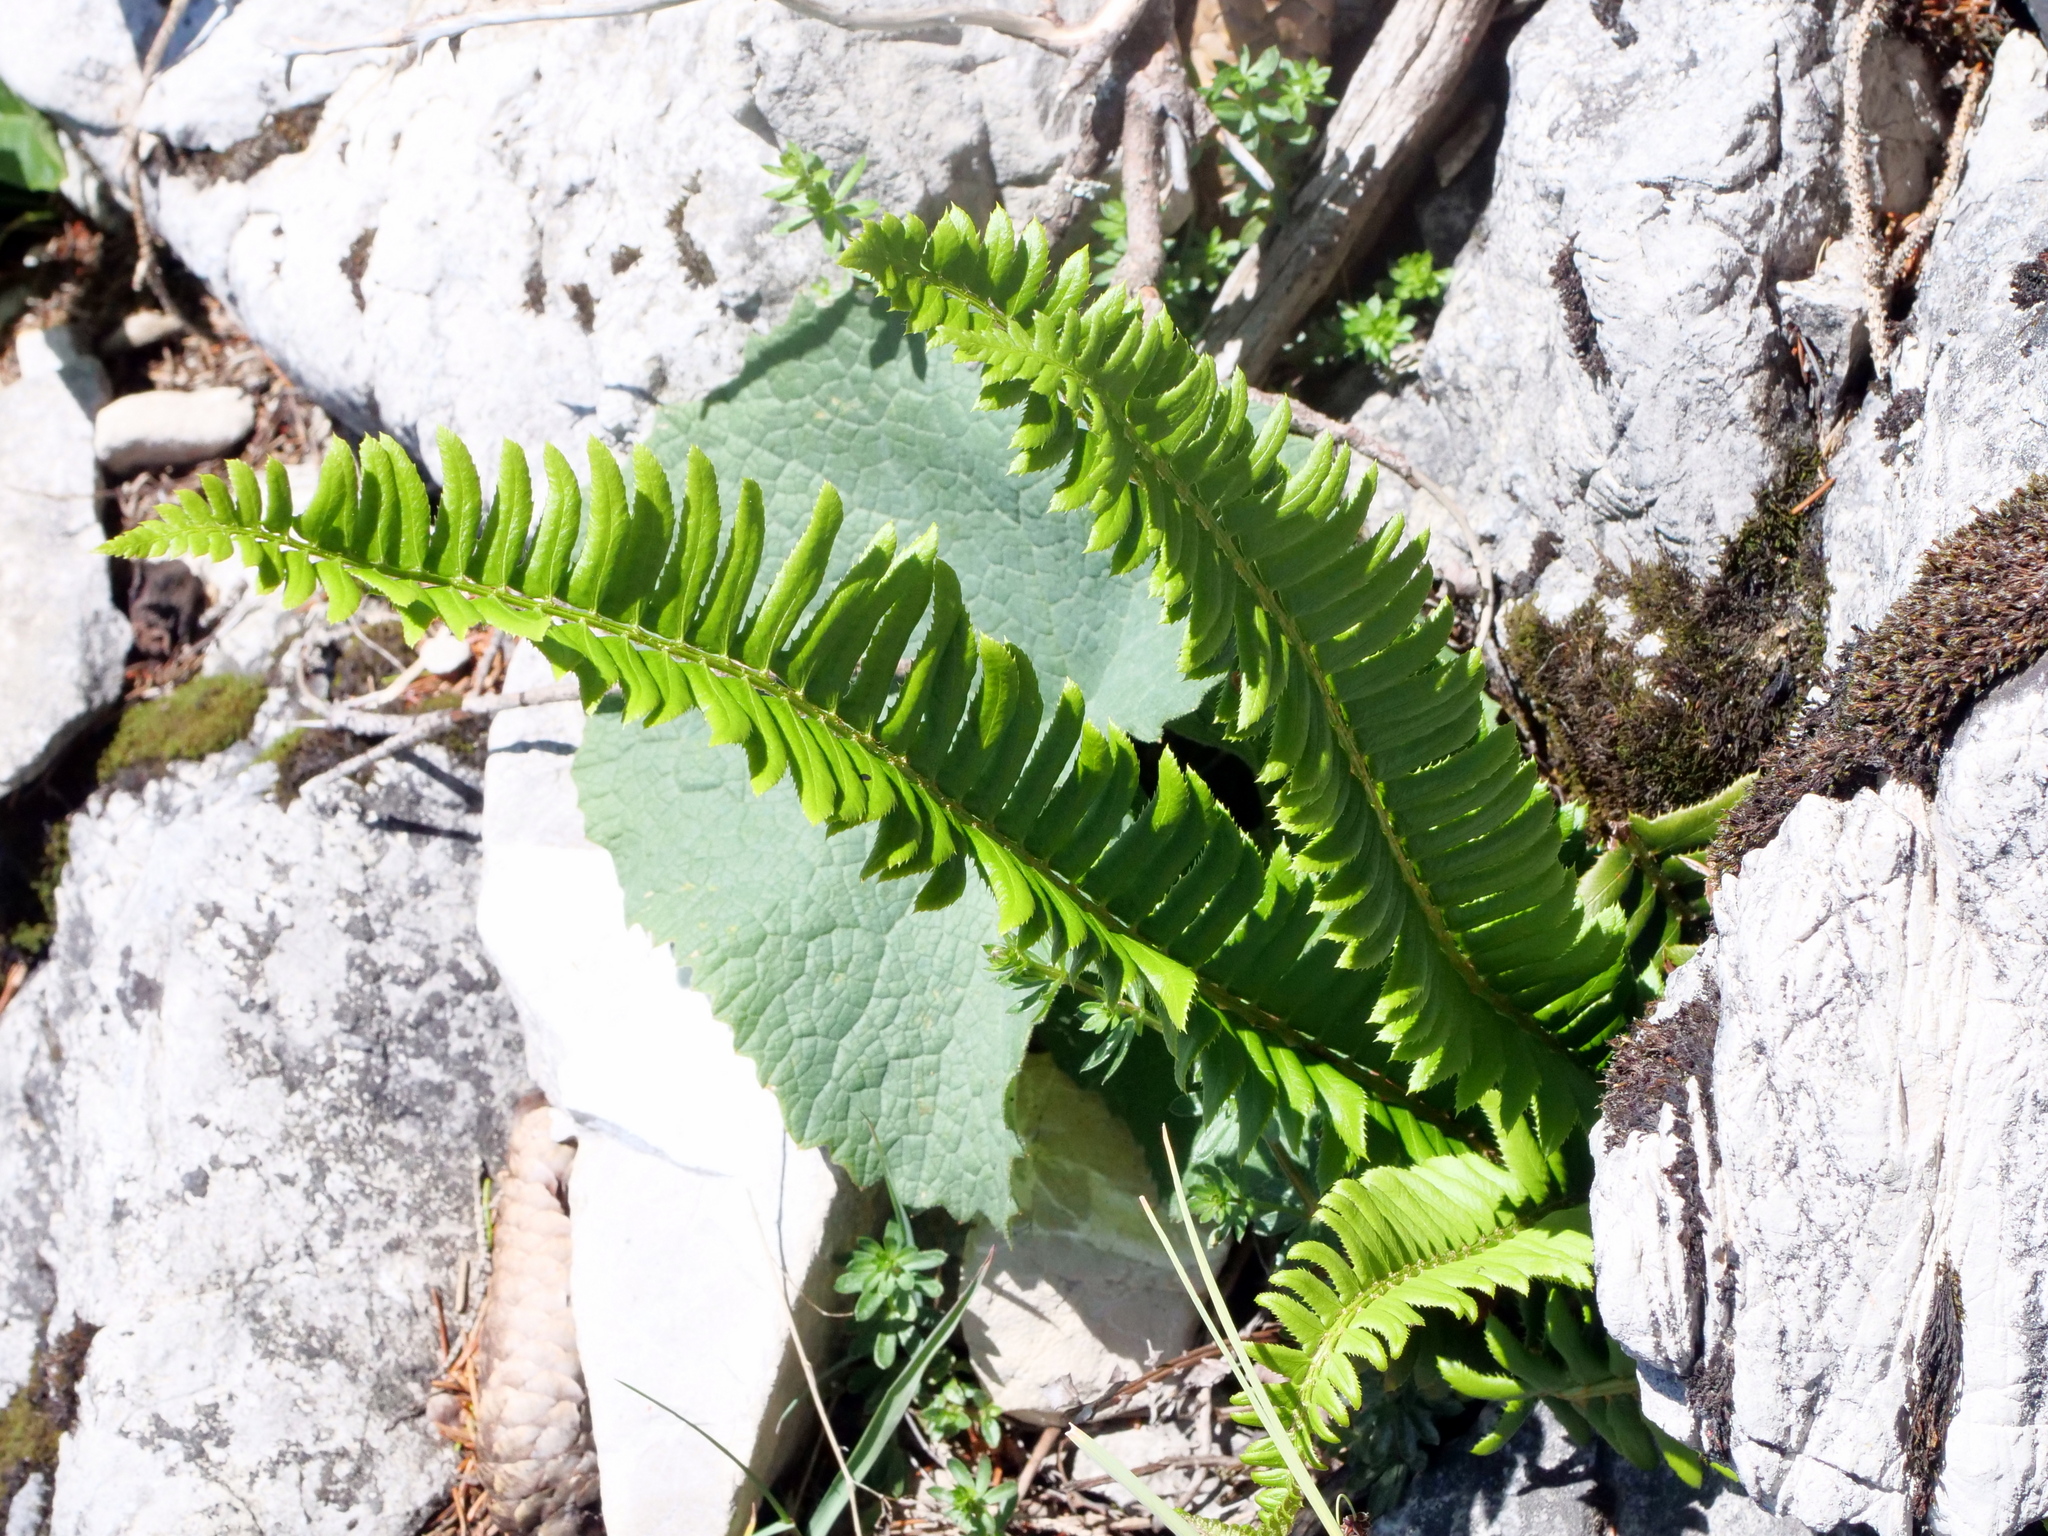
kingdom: Plantae
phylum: Tracheophyta
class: Polypodiopsida
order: Polypodiales
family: Dryopteridaceae
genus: Polystichum
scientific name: Polystichum lonchitis
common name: Holly fern
